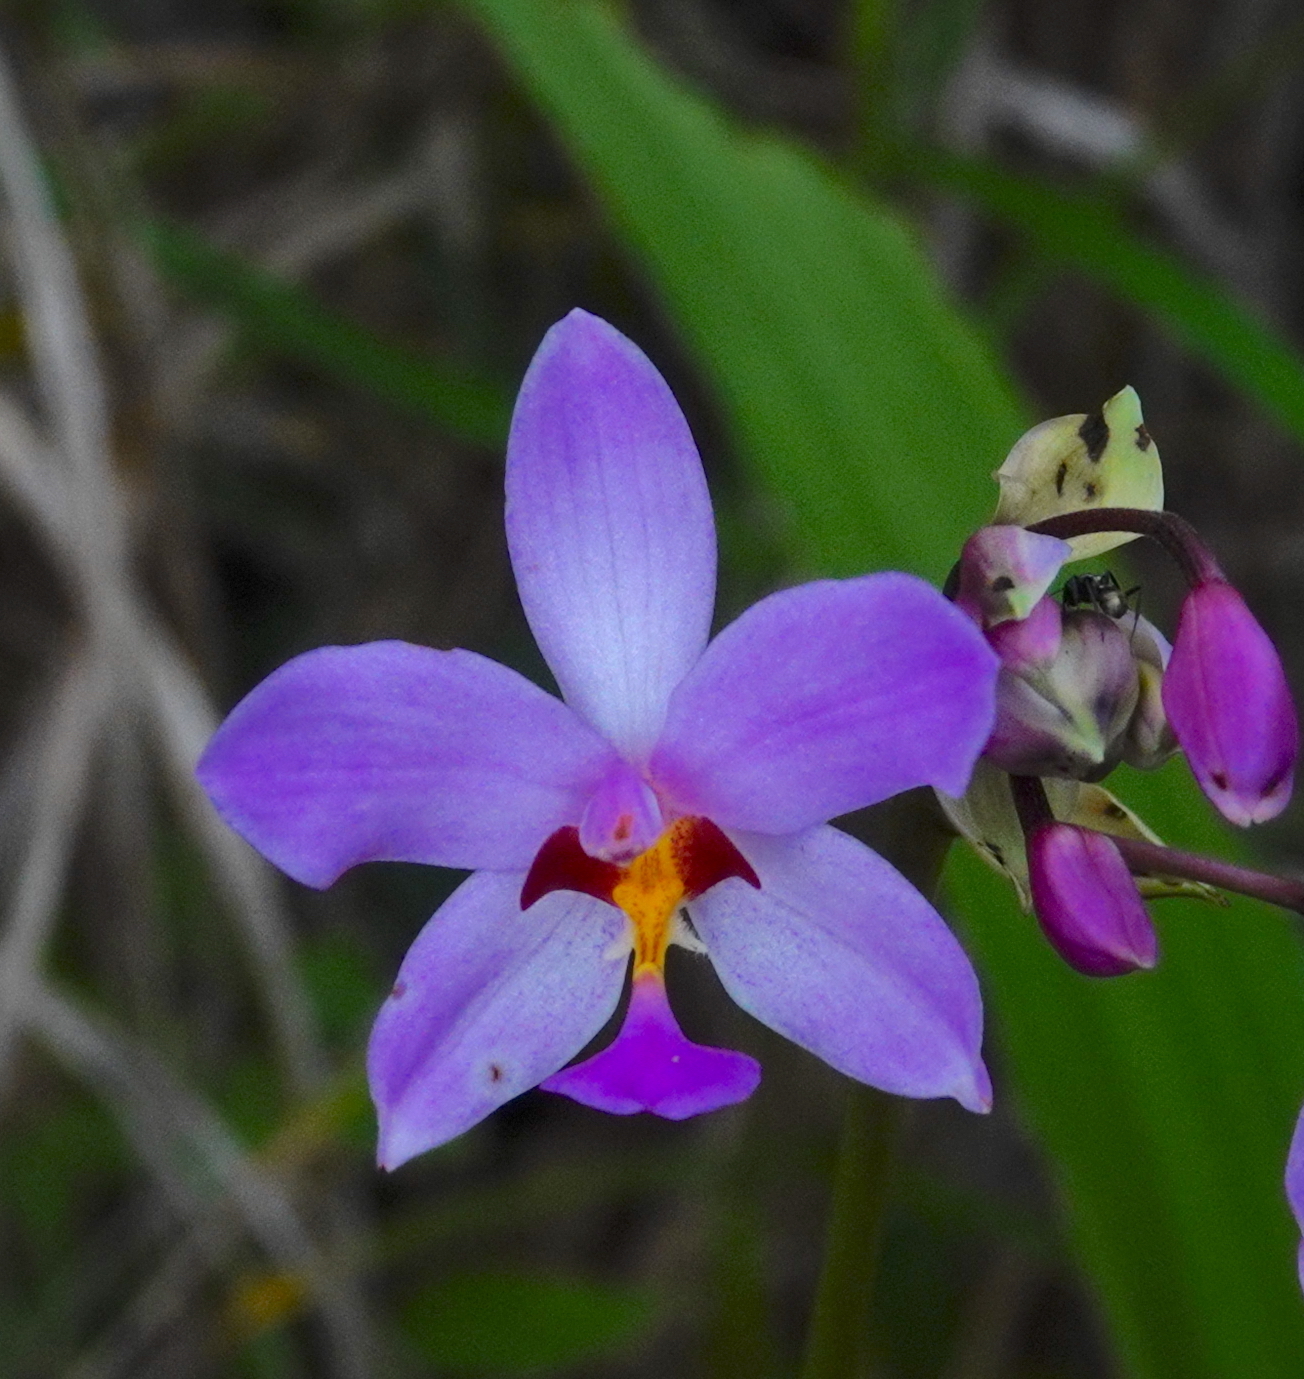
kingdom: Plantae
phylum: Tracheophyta
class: Liliopsida
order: Asparagales
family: Orchidaceae
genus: Spathoglottis
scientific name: Spathoglottis plicata
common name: Philippine ground orchid
